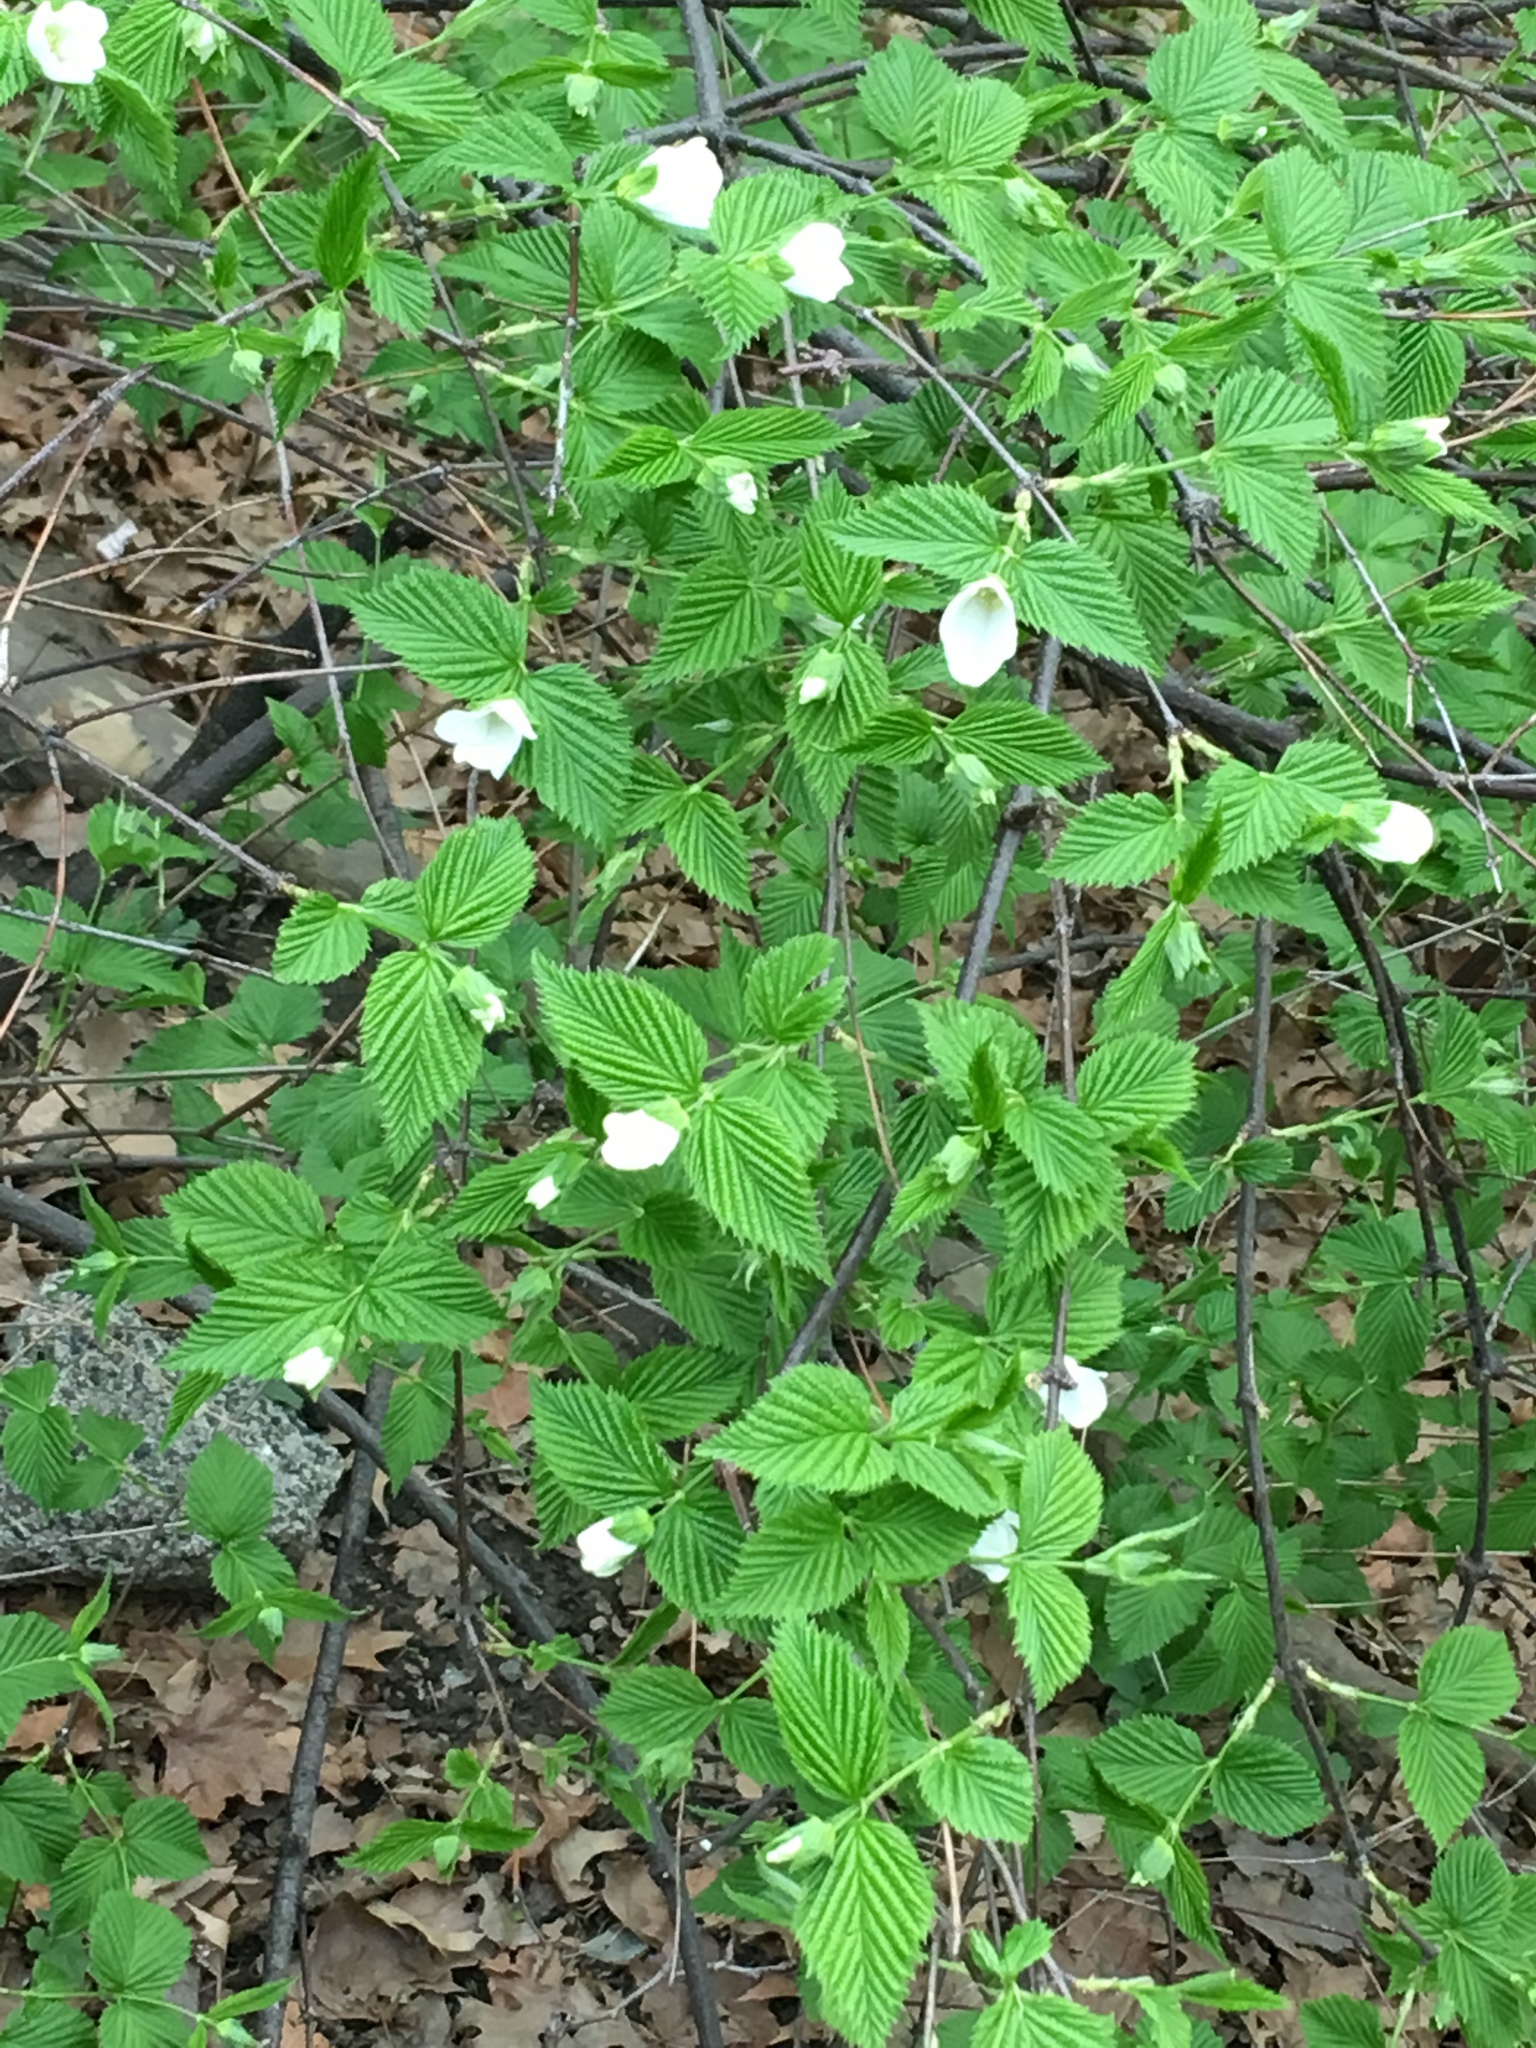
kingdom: Plantae
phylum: Tracheophyta
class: Magnoliopsida
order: Rosales
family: Rosaceae
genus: Rhodotypos
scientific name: Rhodotypos scandens
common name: Jetbead
